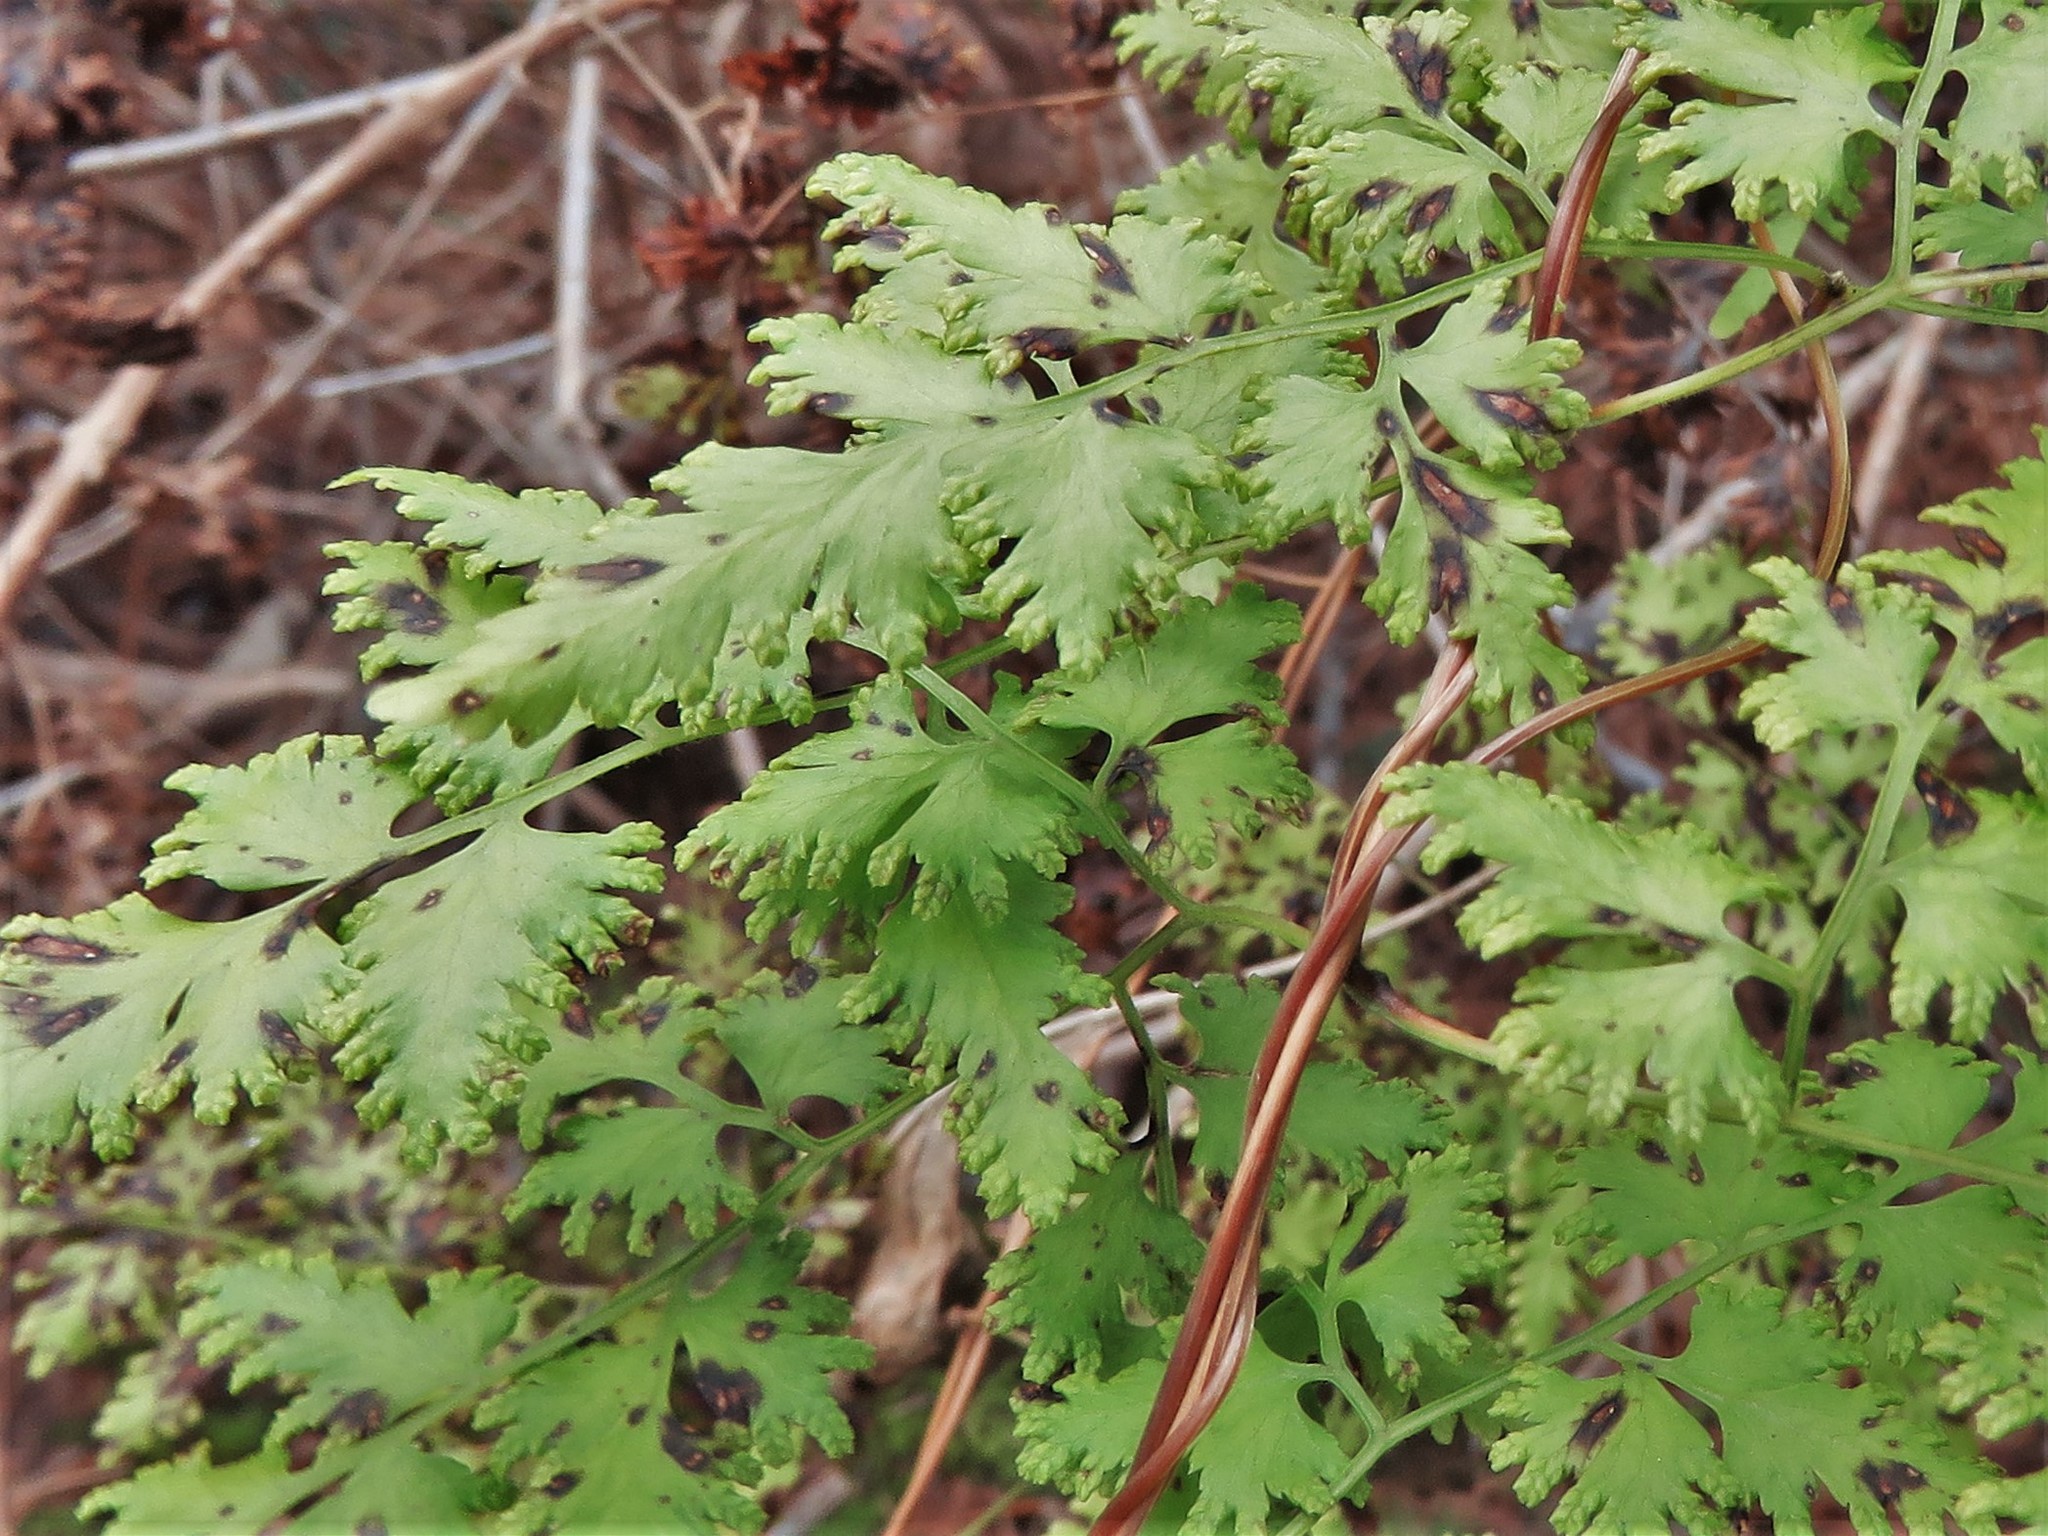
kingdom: Plantae
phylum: Tracheophyta
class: Polypodiopsida
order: Schizaeales
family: Lygodiaceae
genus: Lygodium
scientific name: Lygodium japonicum
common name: Japanese climbing fern
